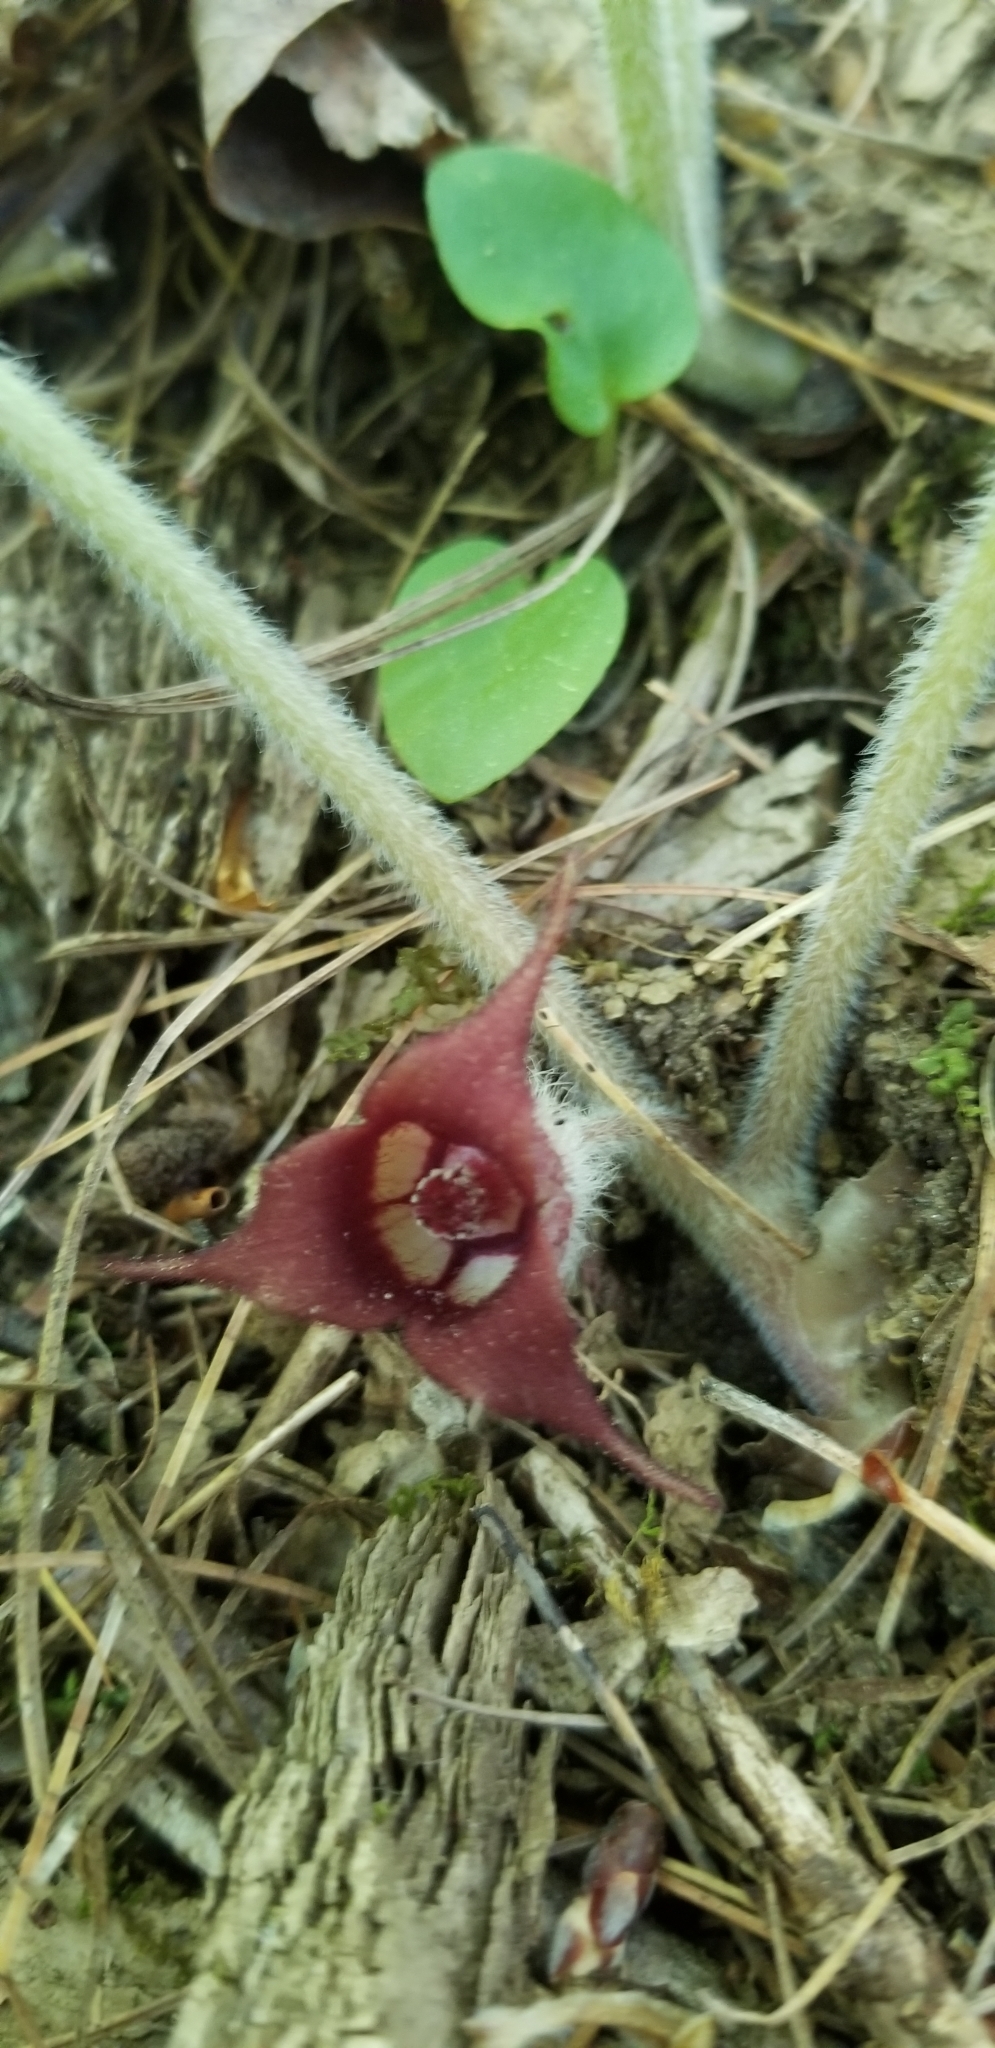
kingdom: Plantae
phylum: Tracheophyta
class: Magnoliopsida
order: Piperales
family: Aristolochiaceae
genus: Asarum
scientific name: Asarum canadense
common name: Wild ginger
